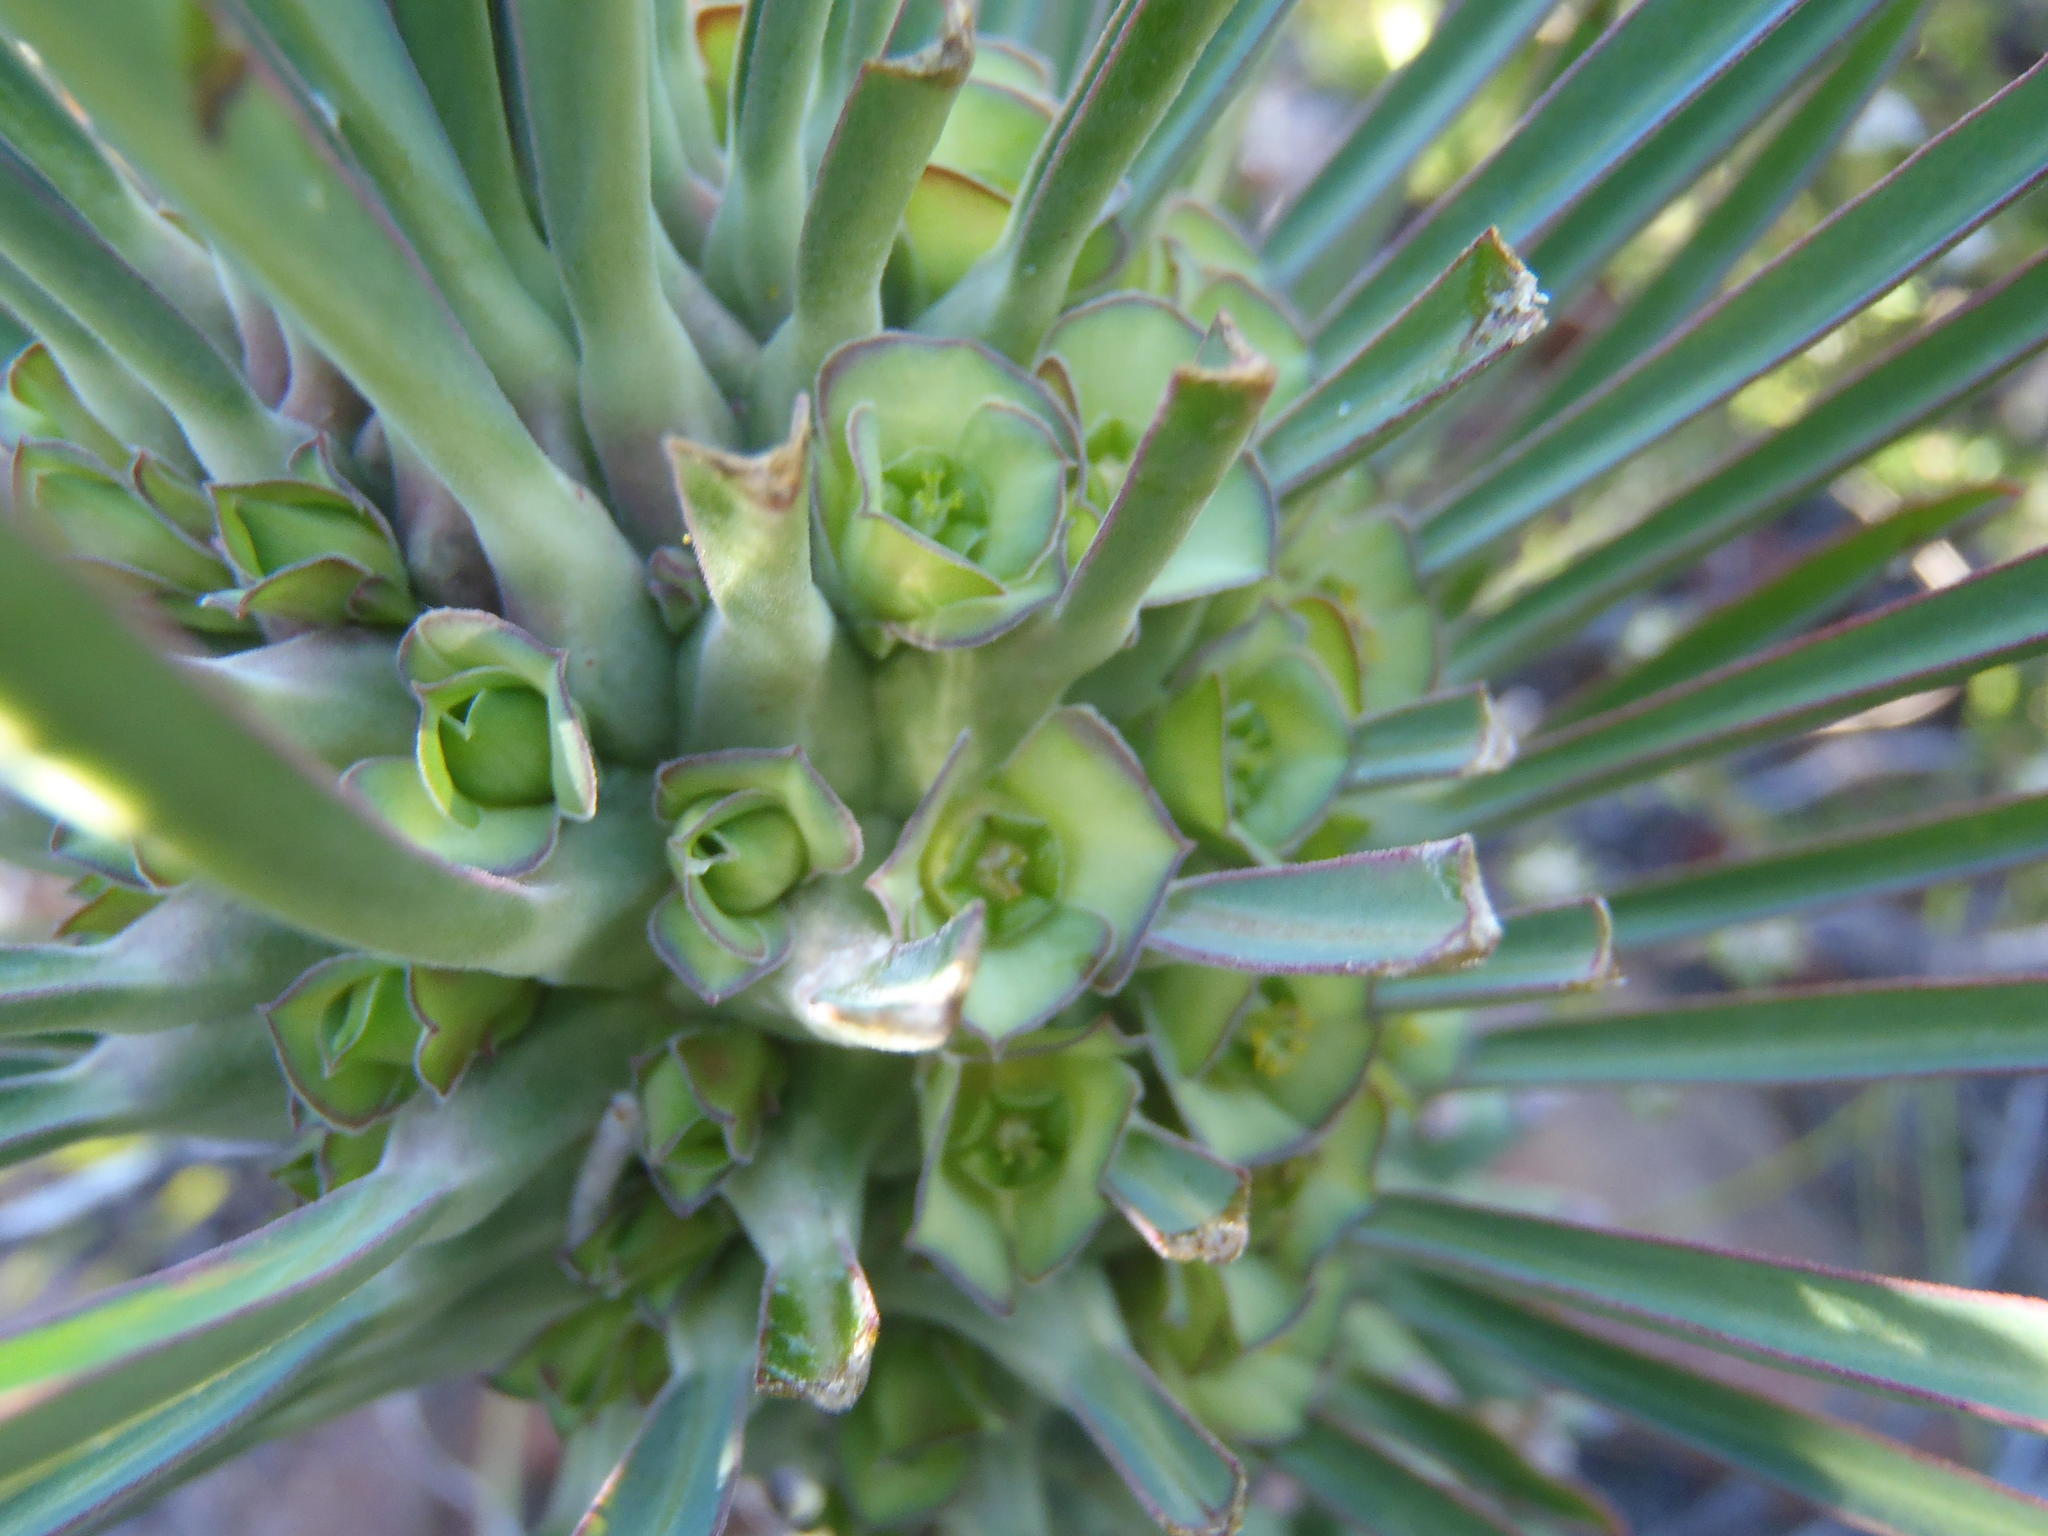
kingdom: Plantae
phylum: Tracheophyta
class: Magnoliopsida
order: Malpighiales
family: Euphorbiaceae
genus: Euphorbia
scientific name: Euphorbia clandestina
